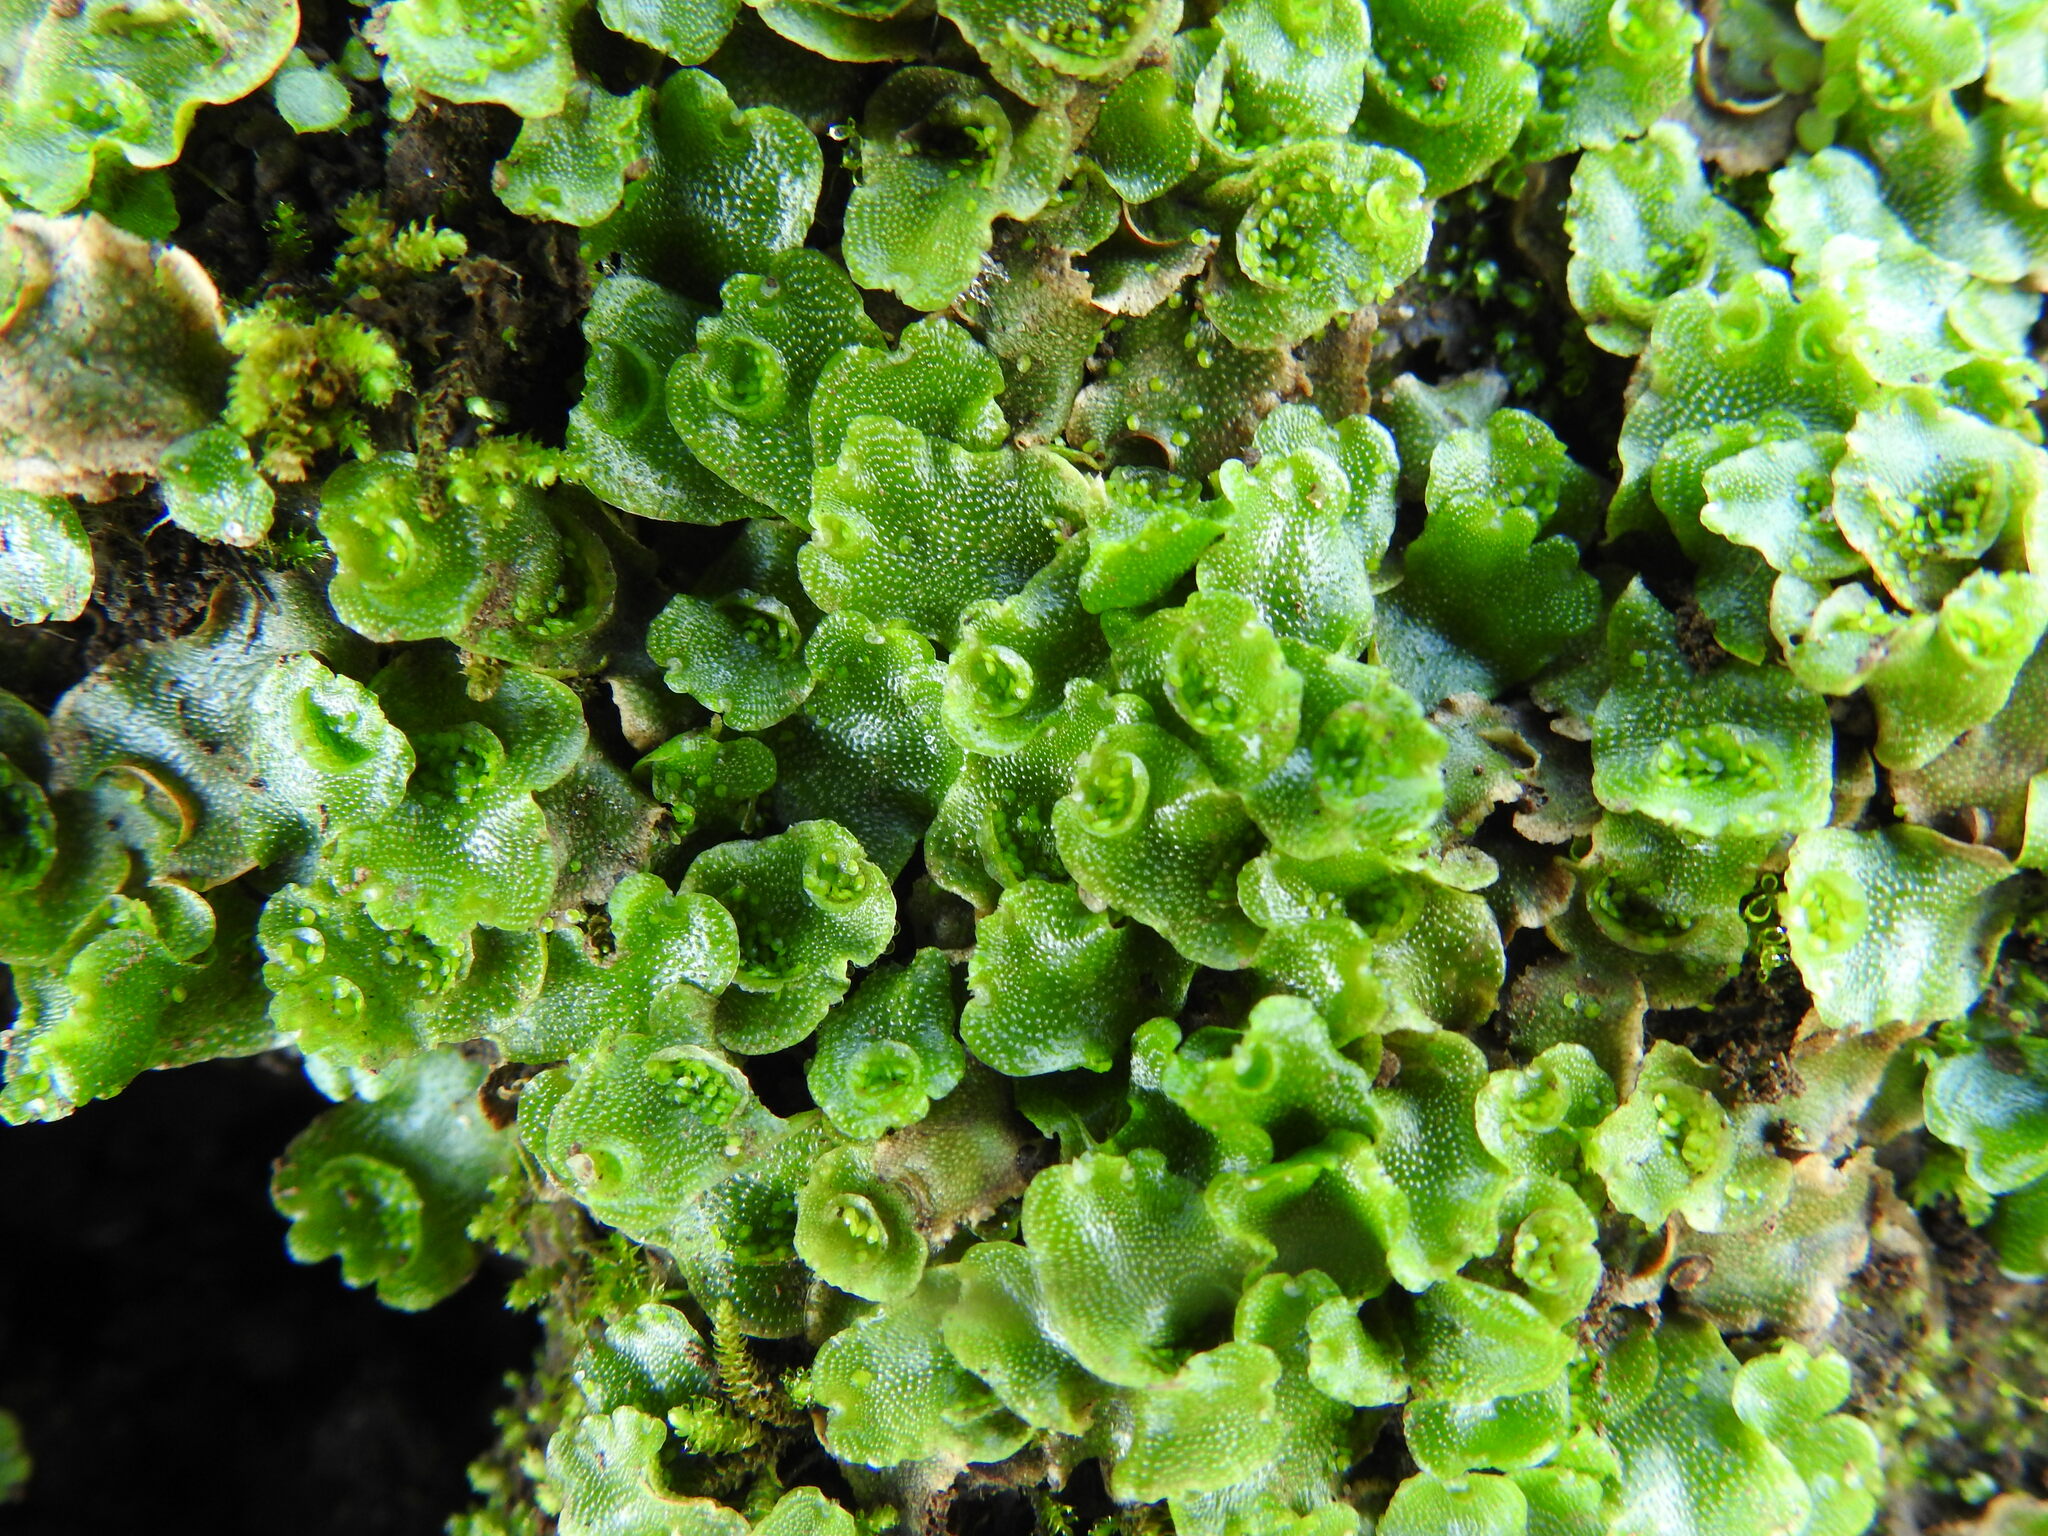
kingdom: Plantae
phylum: Marchantiophyta
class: Marchantiopsida
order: Lunulariales
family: Lunulariaceae
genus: Lunularia
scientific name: Lunularia cruciata
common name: Crescent-cup liverwort
